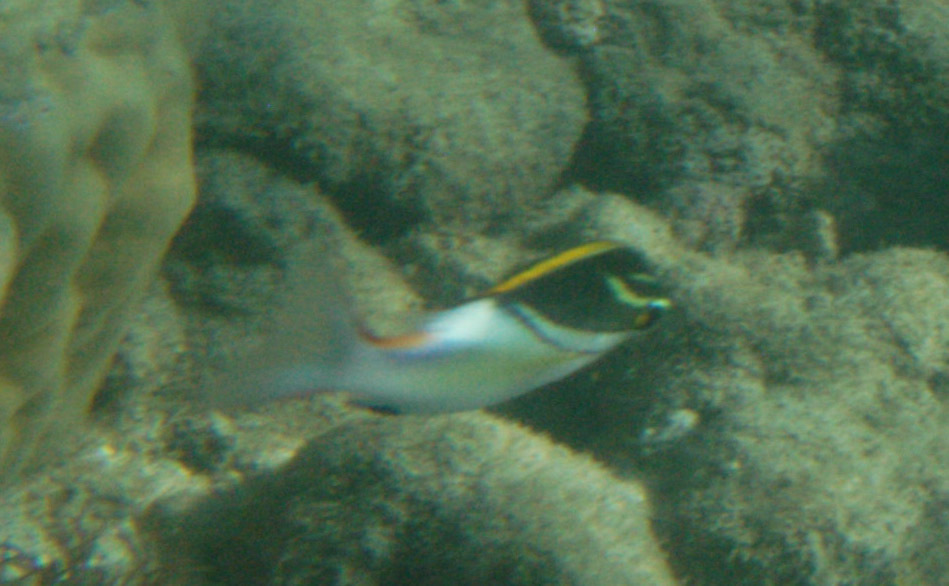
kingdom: Animalia
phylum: Chordata
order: Perciformes
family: Nemipteridae
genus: Scolopsis
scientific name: Scolopsis bilineata
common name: Two-lined monocle bream
